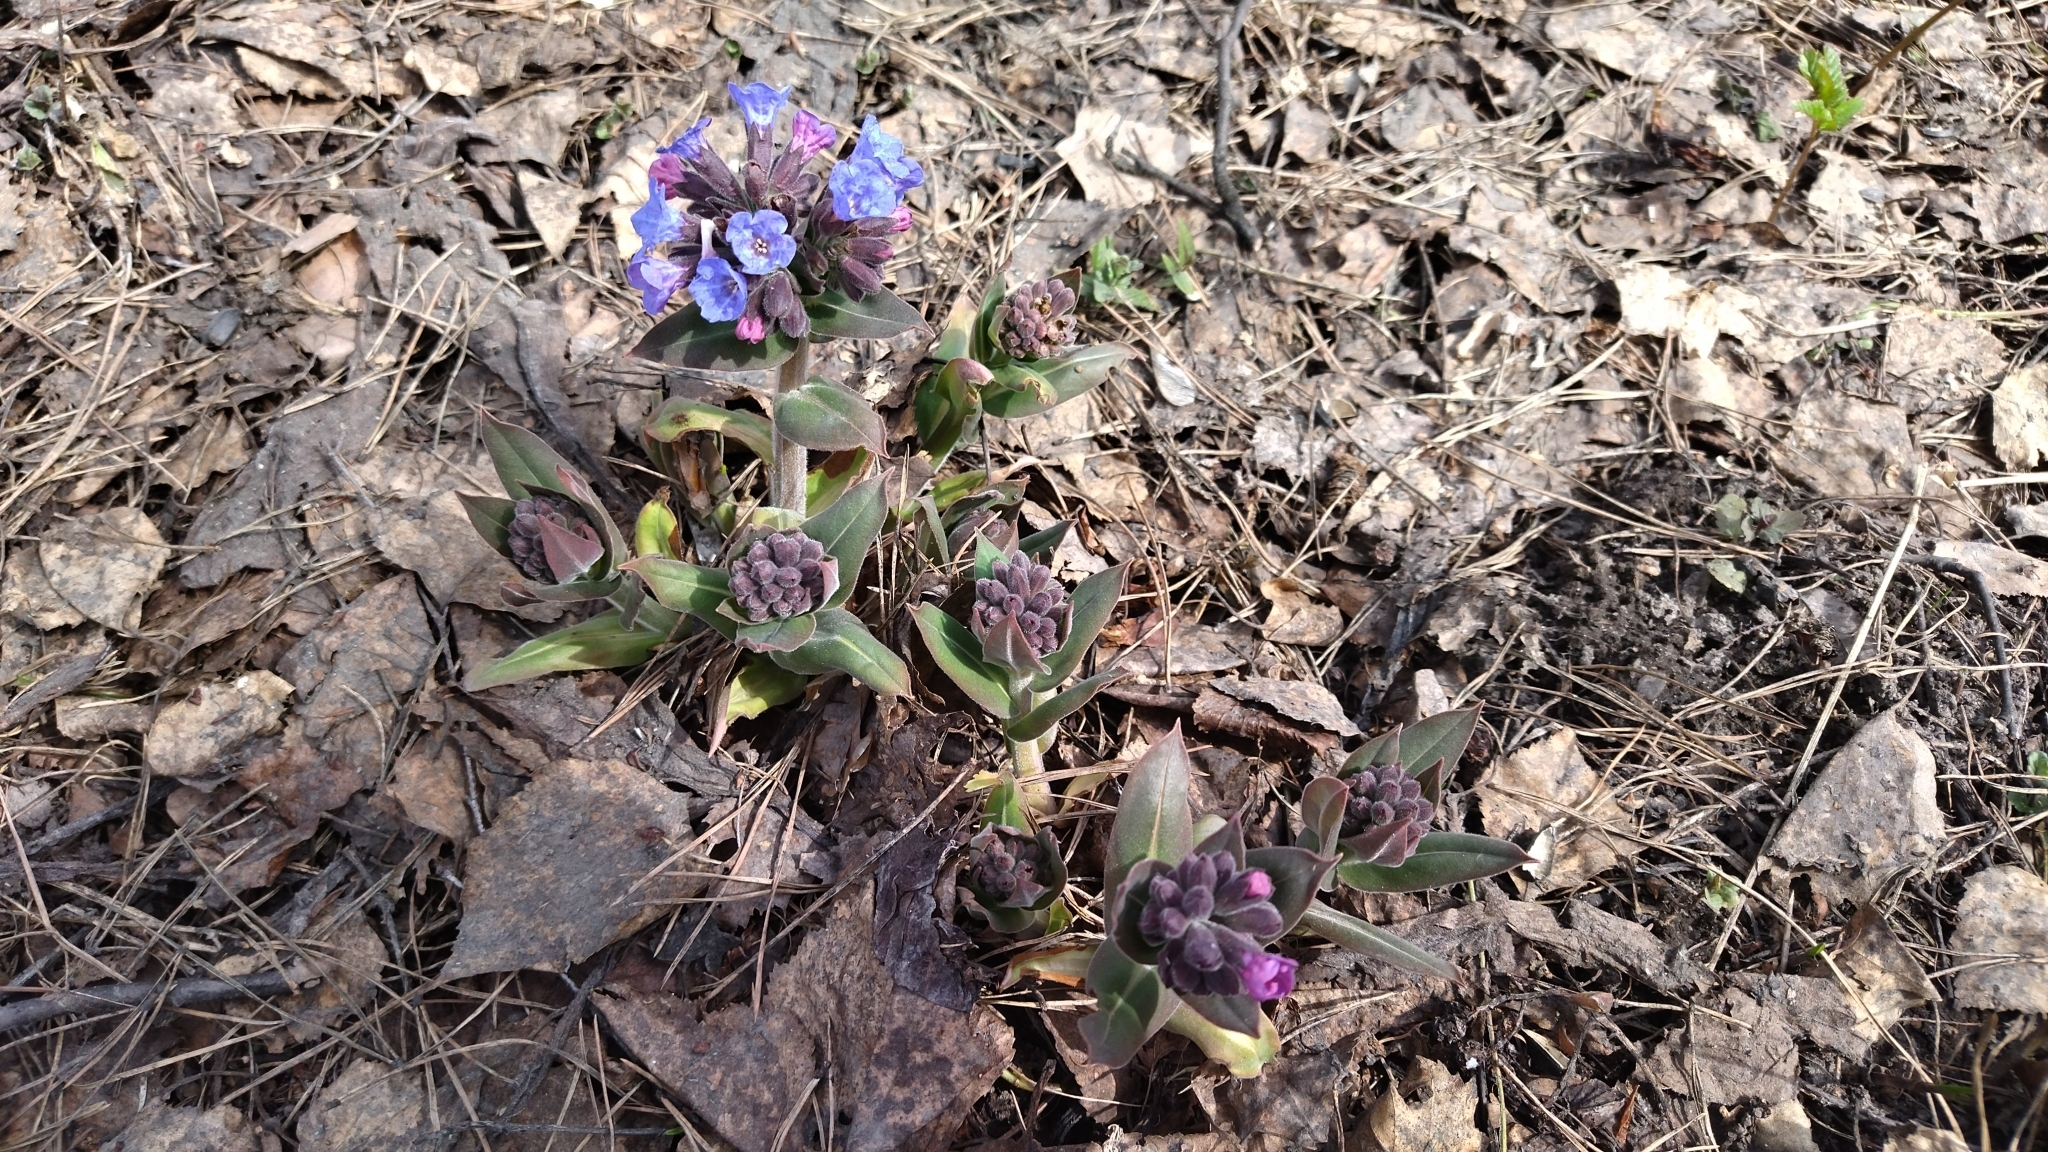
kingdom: Plantae
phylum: Tracheophyta
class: Magnoliopsida
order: Boraginales
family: Boraginaceae
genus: Pulmonaria
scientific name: Pulmonaria mollis
